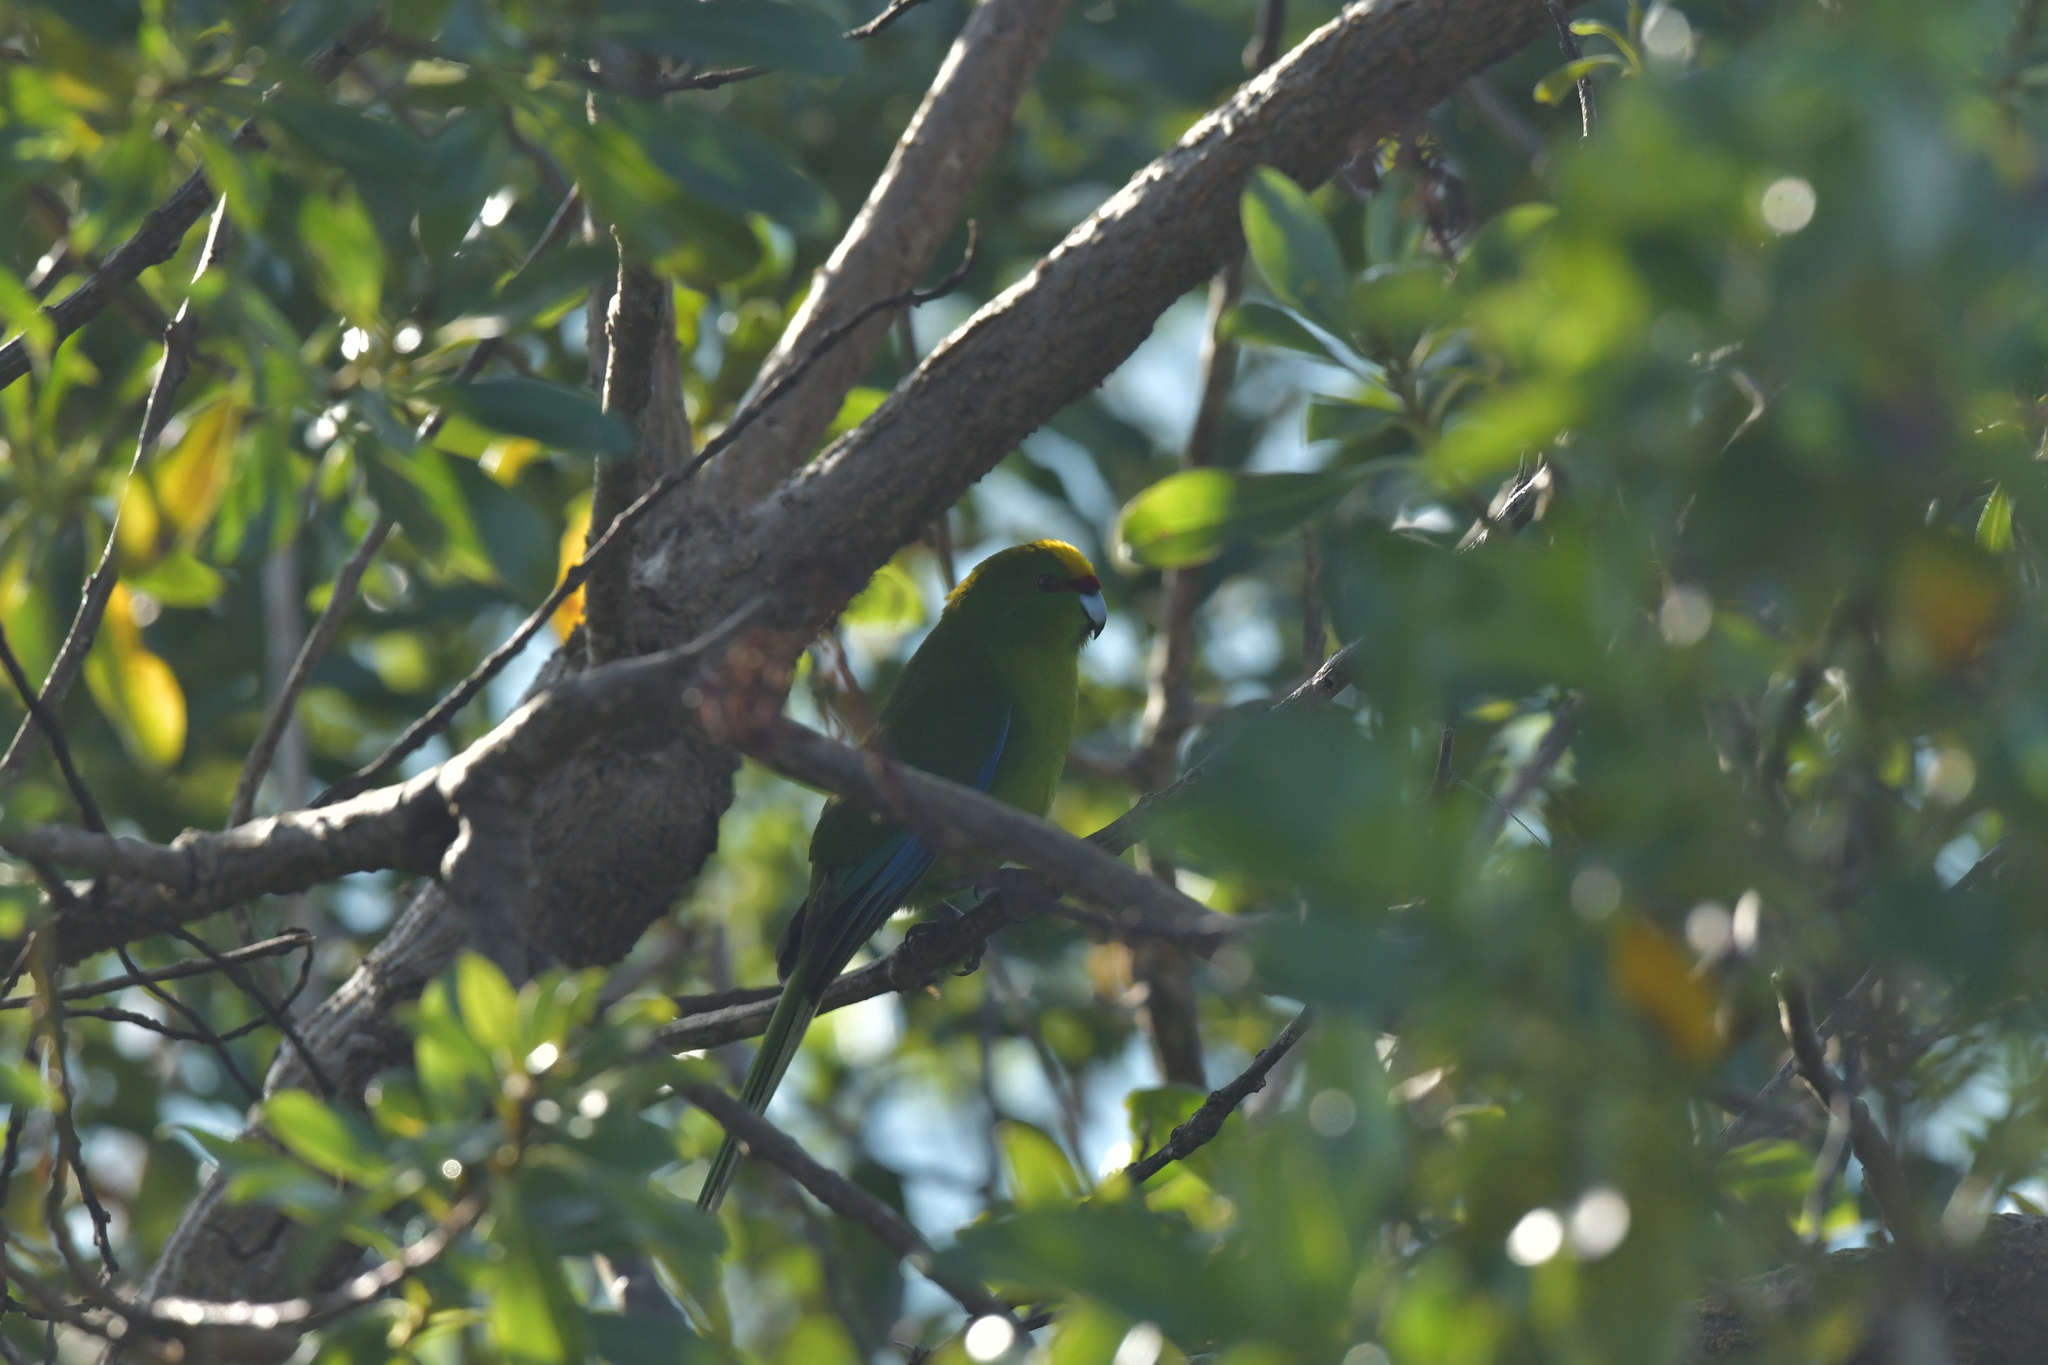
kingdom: Animalia
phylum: Chordata
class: Aves
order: Psittaciformes
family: Psittacidae
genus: Cyanoramphus
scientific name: Cyanoramphus auriceps
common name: Yellow-crowned parakeet
